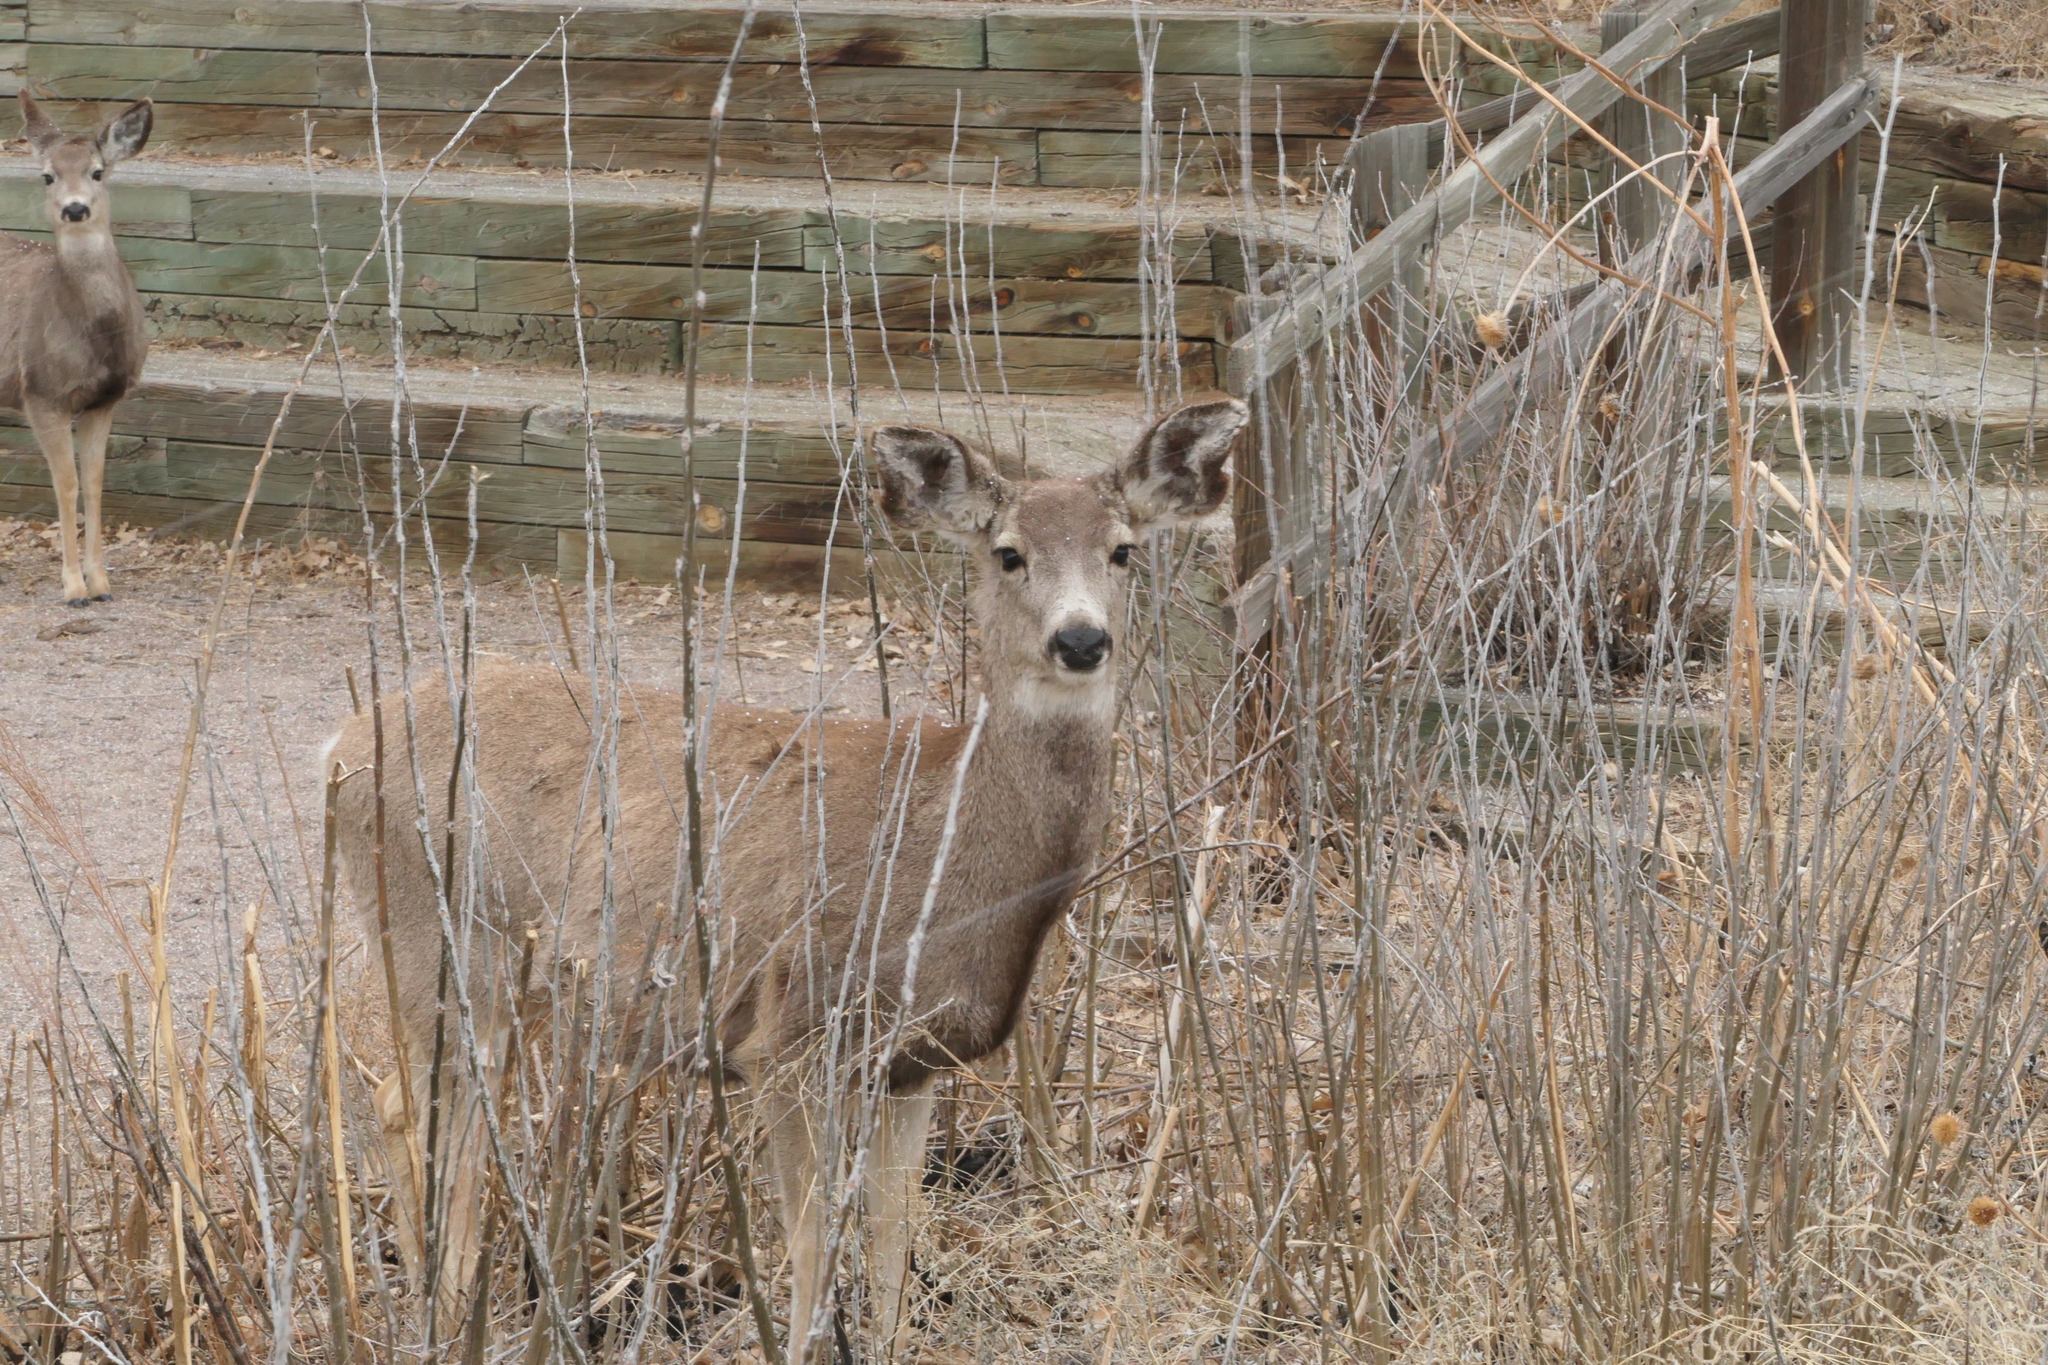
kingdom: Animalia
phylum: Chordata
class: Mammalia
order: Artiodactyla
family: Cervidae
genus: Odocoileus
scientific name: Odocoileus hemionus
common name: Mule deer
